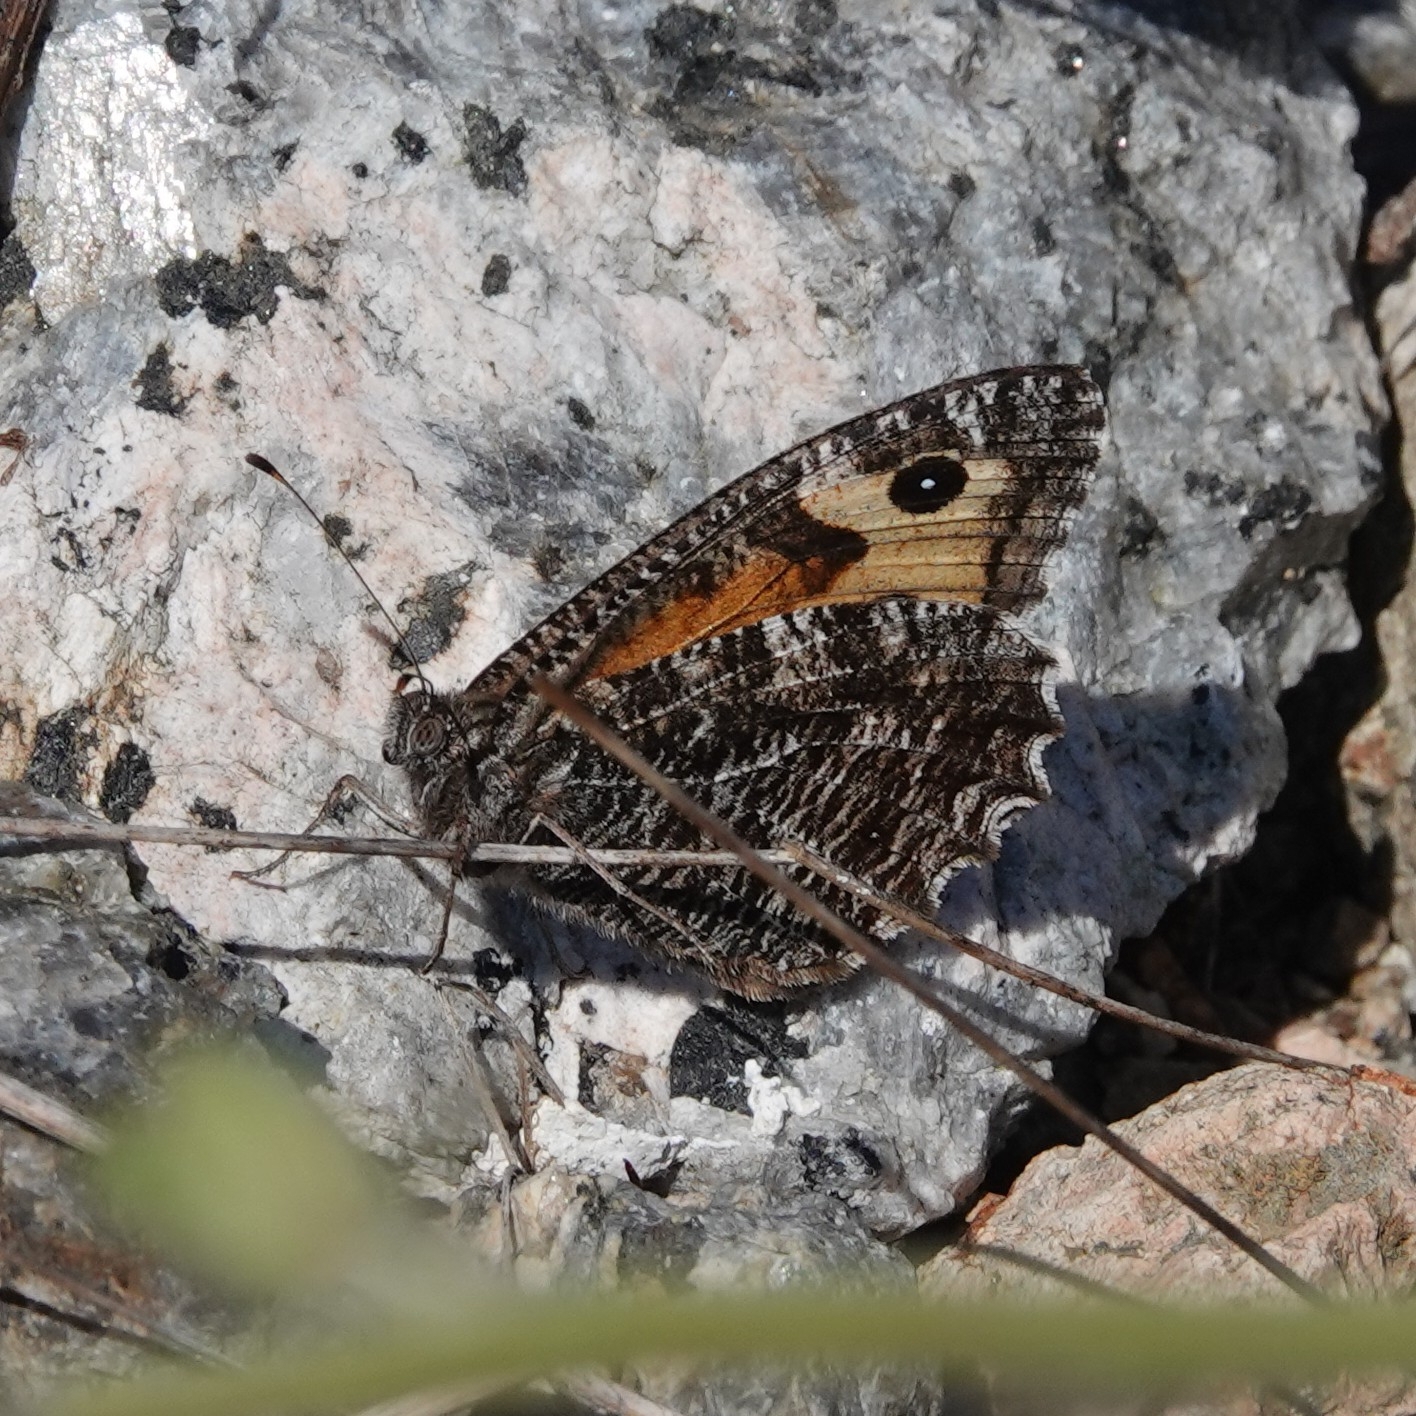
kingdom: Animalia
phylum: Arthropoda
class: Insecta
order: Lepidoptera
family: Nymphalidae
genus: Hipparchia
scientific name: Hipparchia semele
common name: Grayling
